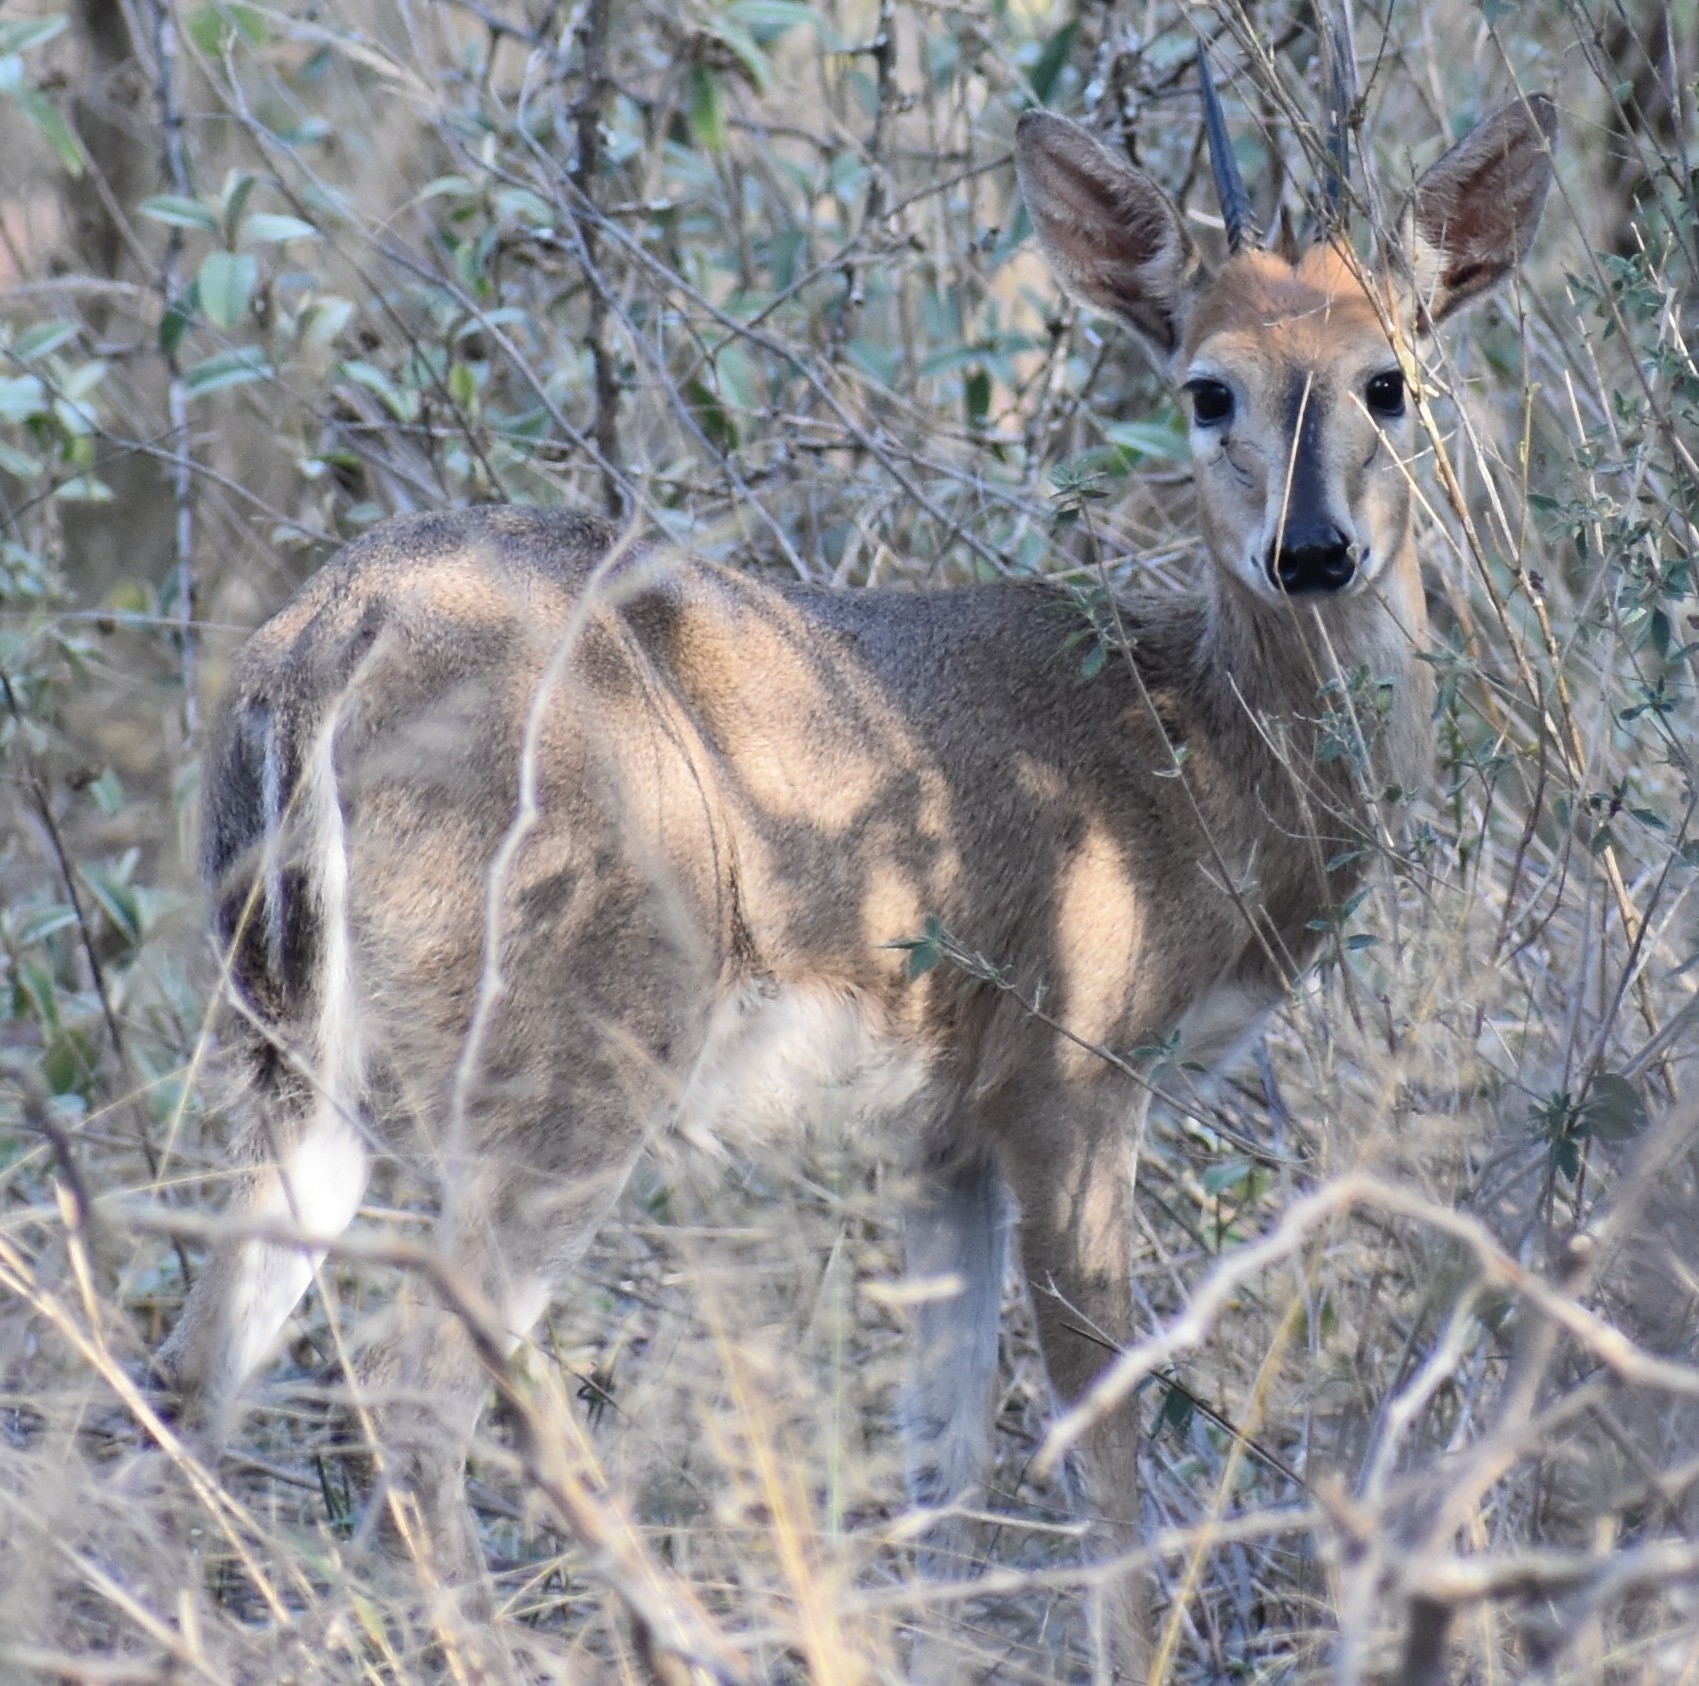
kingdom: Animalia
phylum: Chordata
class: Mammalia
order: Artiodactyla
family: Bovidae
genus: Sylvicapra
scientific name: Sylvicapra grimmia
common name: Bush duiker
